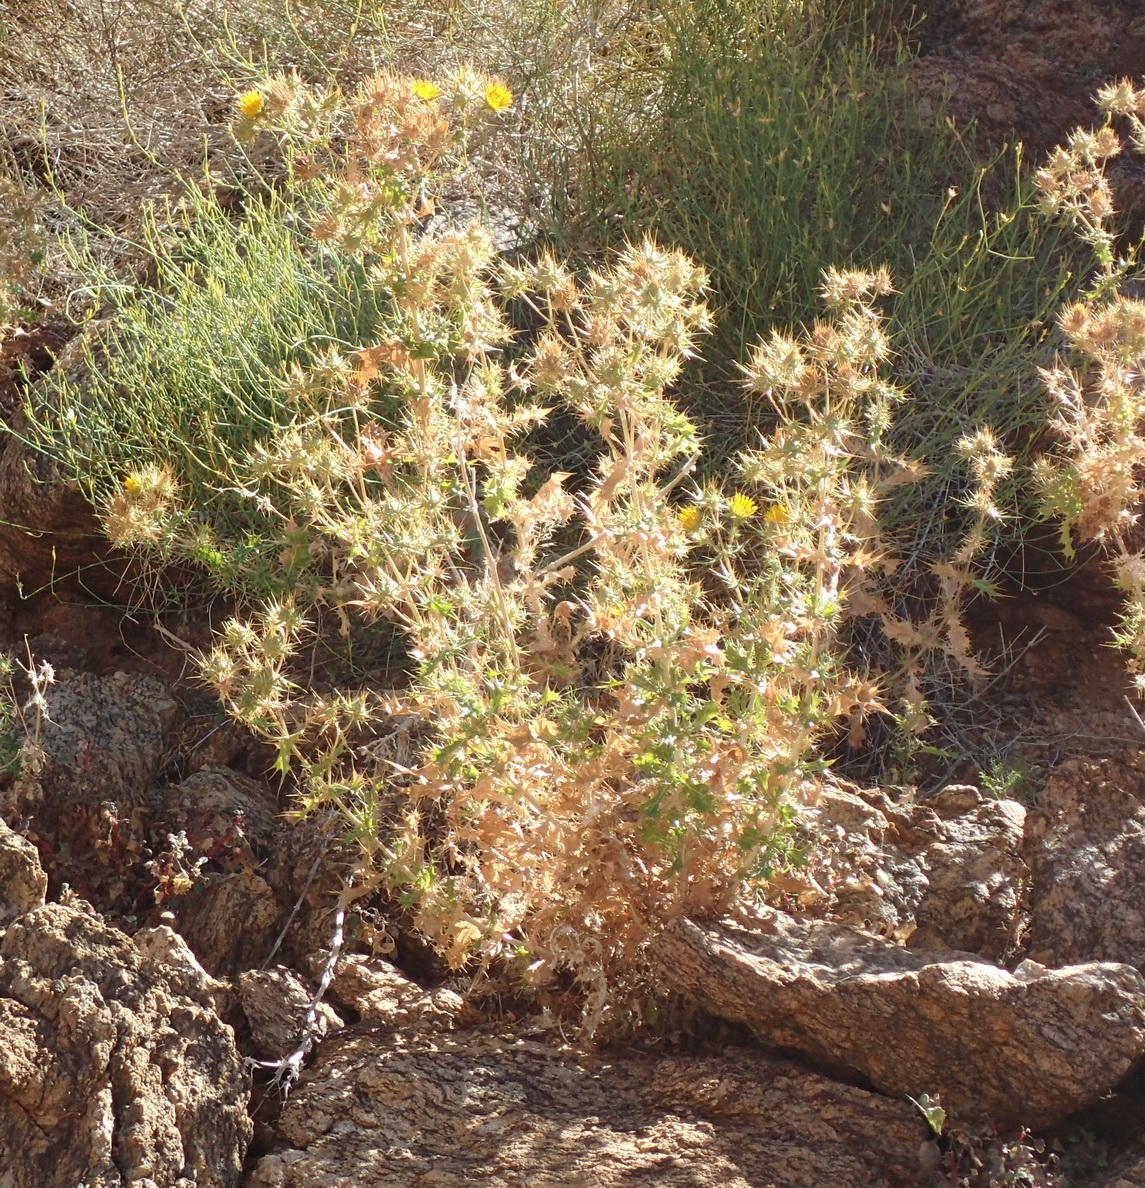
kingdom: Plantae
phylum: Tracheophyta
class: Magnoliopsida
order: Asterales
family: Asteraceae
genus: Berkheya
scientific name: Berkheya spinosissima
